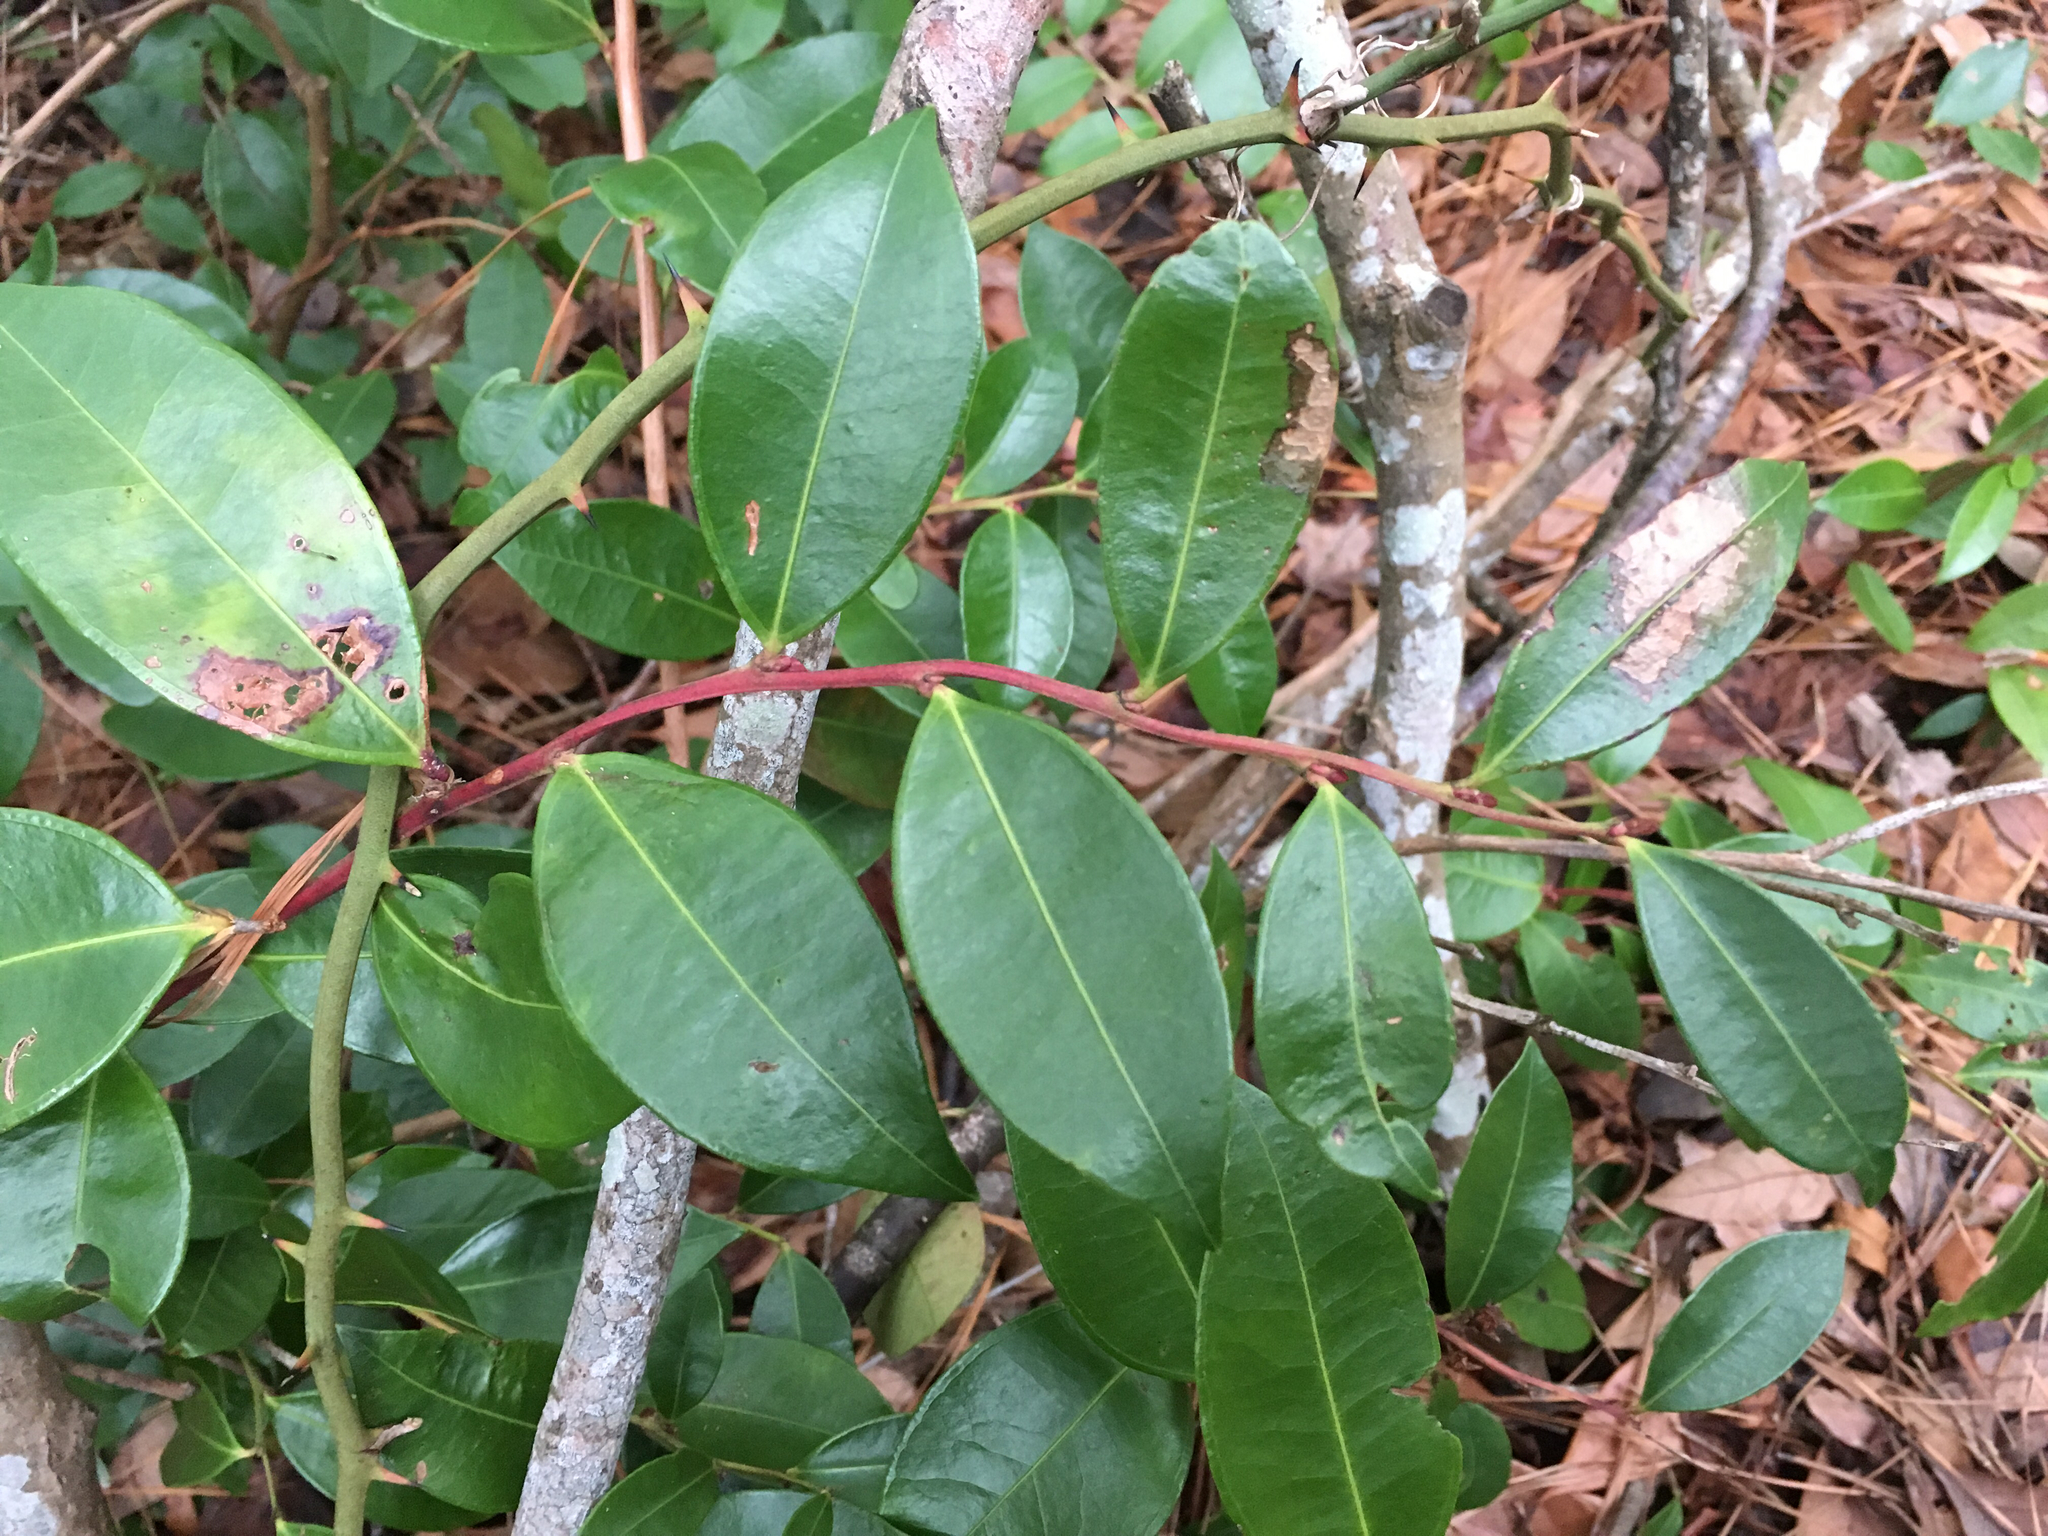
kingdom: Plantae
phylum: Tracheophyta
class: Magnoliopsida
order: Ericales
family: Ericaceae
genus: Lyonia
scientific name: Lyonia lucida
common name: Fetterbush
